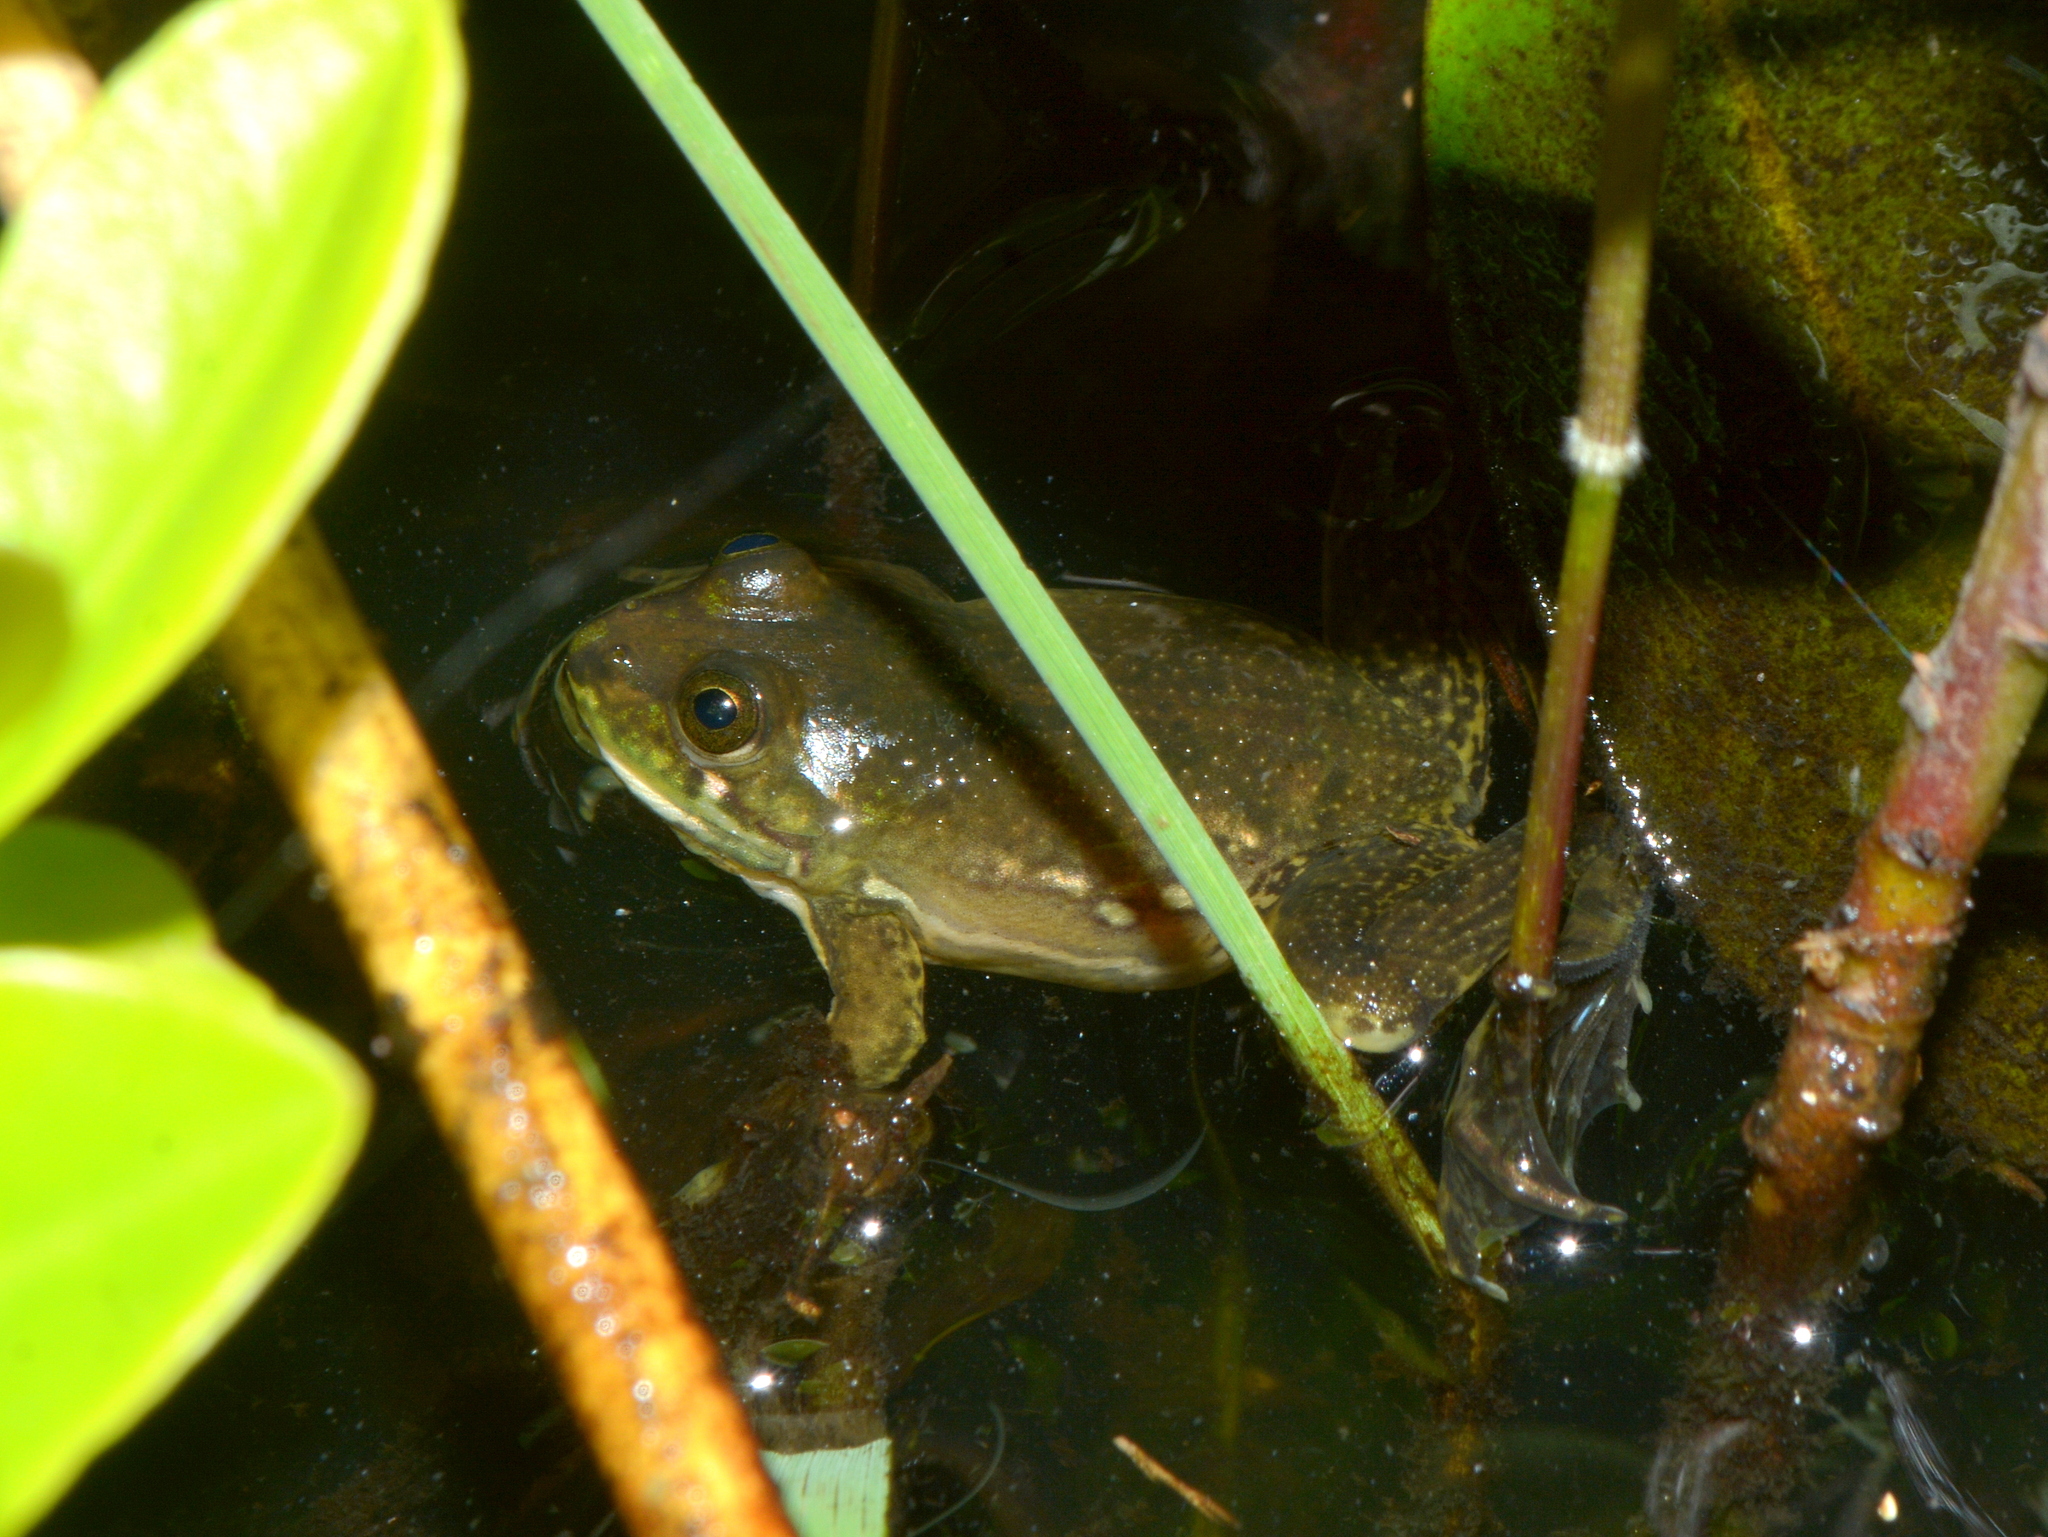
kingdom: Animalia
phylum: Chordata
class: Amphibia
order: Anura
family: Hylidae
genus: Pseudis
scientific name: Pseudis minuta
